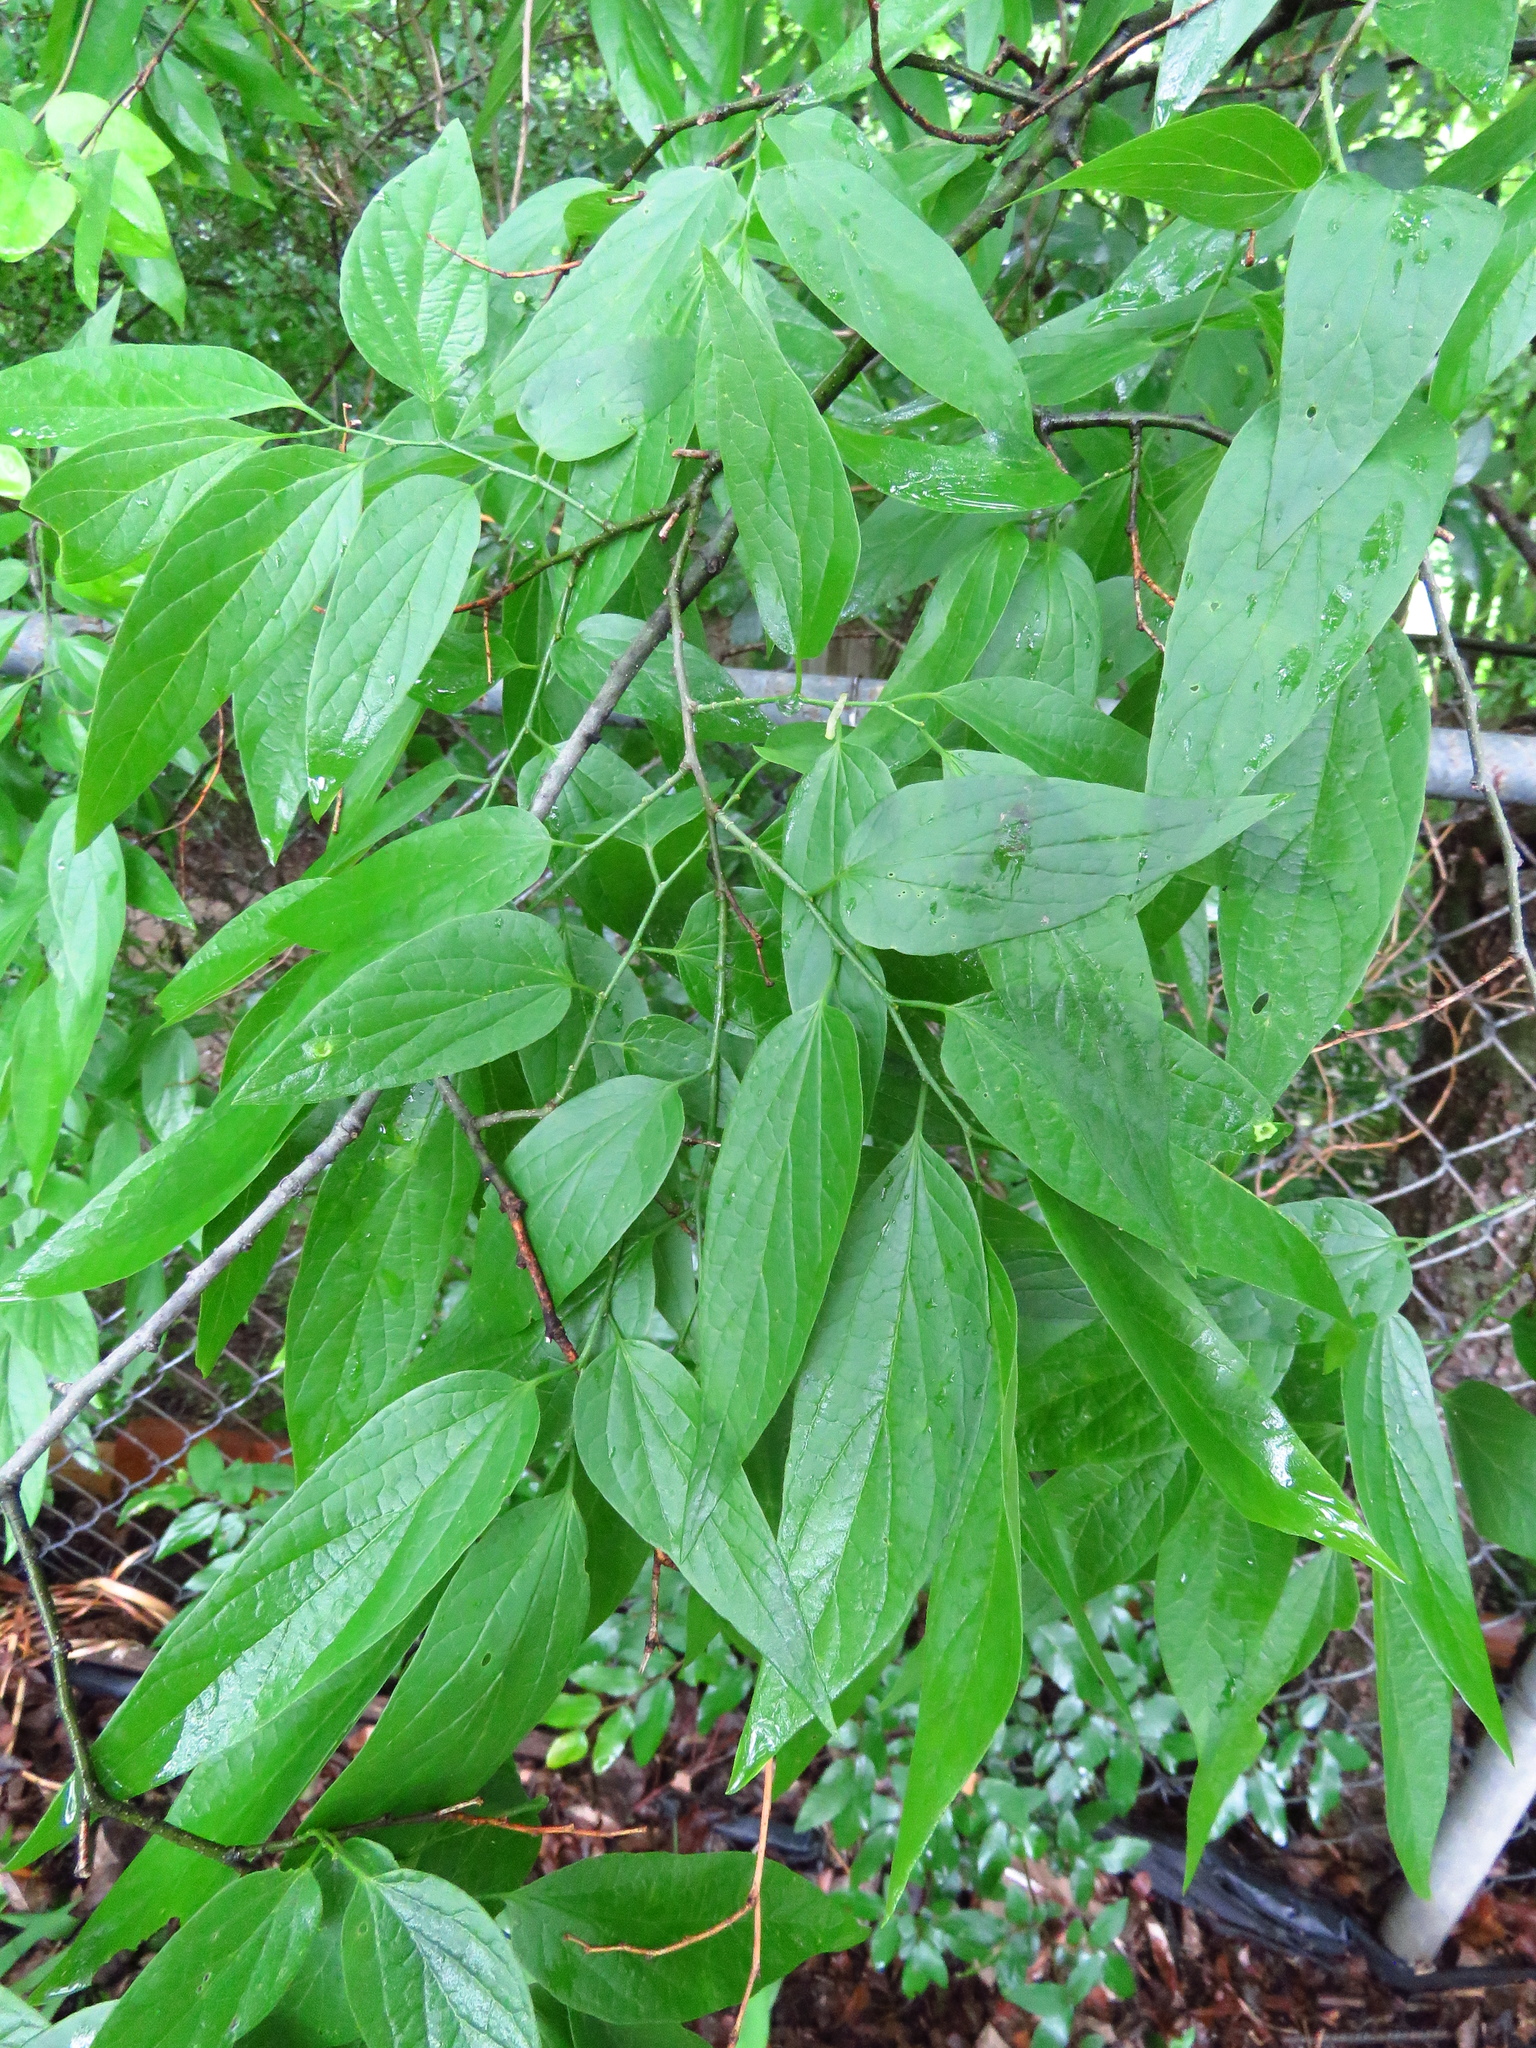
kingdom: Plantae
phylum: Tracheophyta
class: Magnoliopsida
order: Rosales
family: Cannabaceae
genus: Celtis
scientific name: Celtis laevigata
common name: Sugarberry
